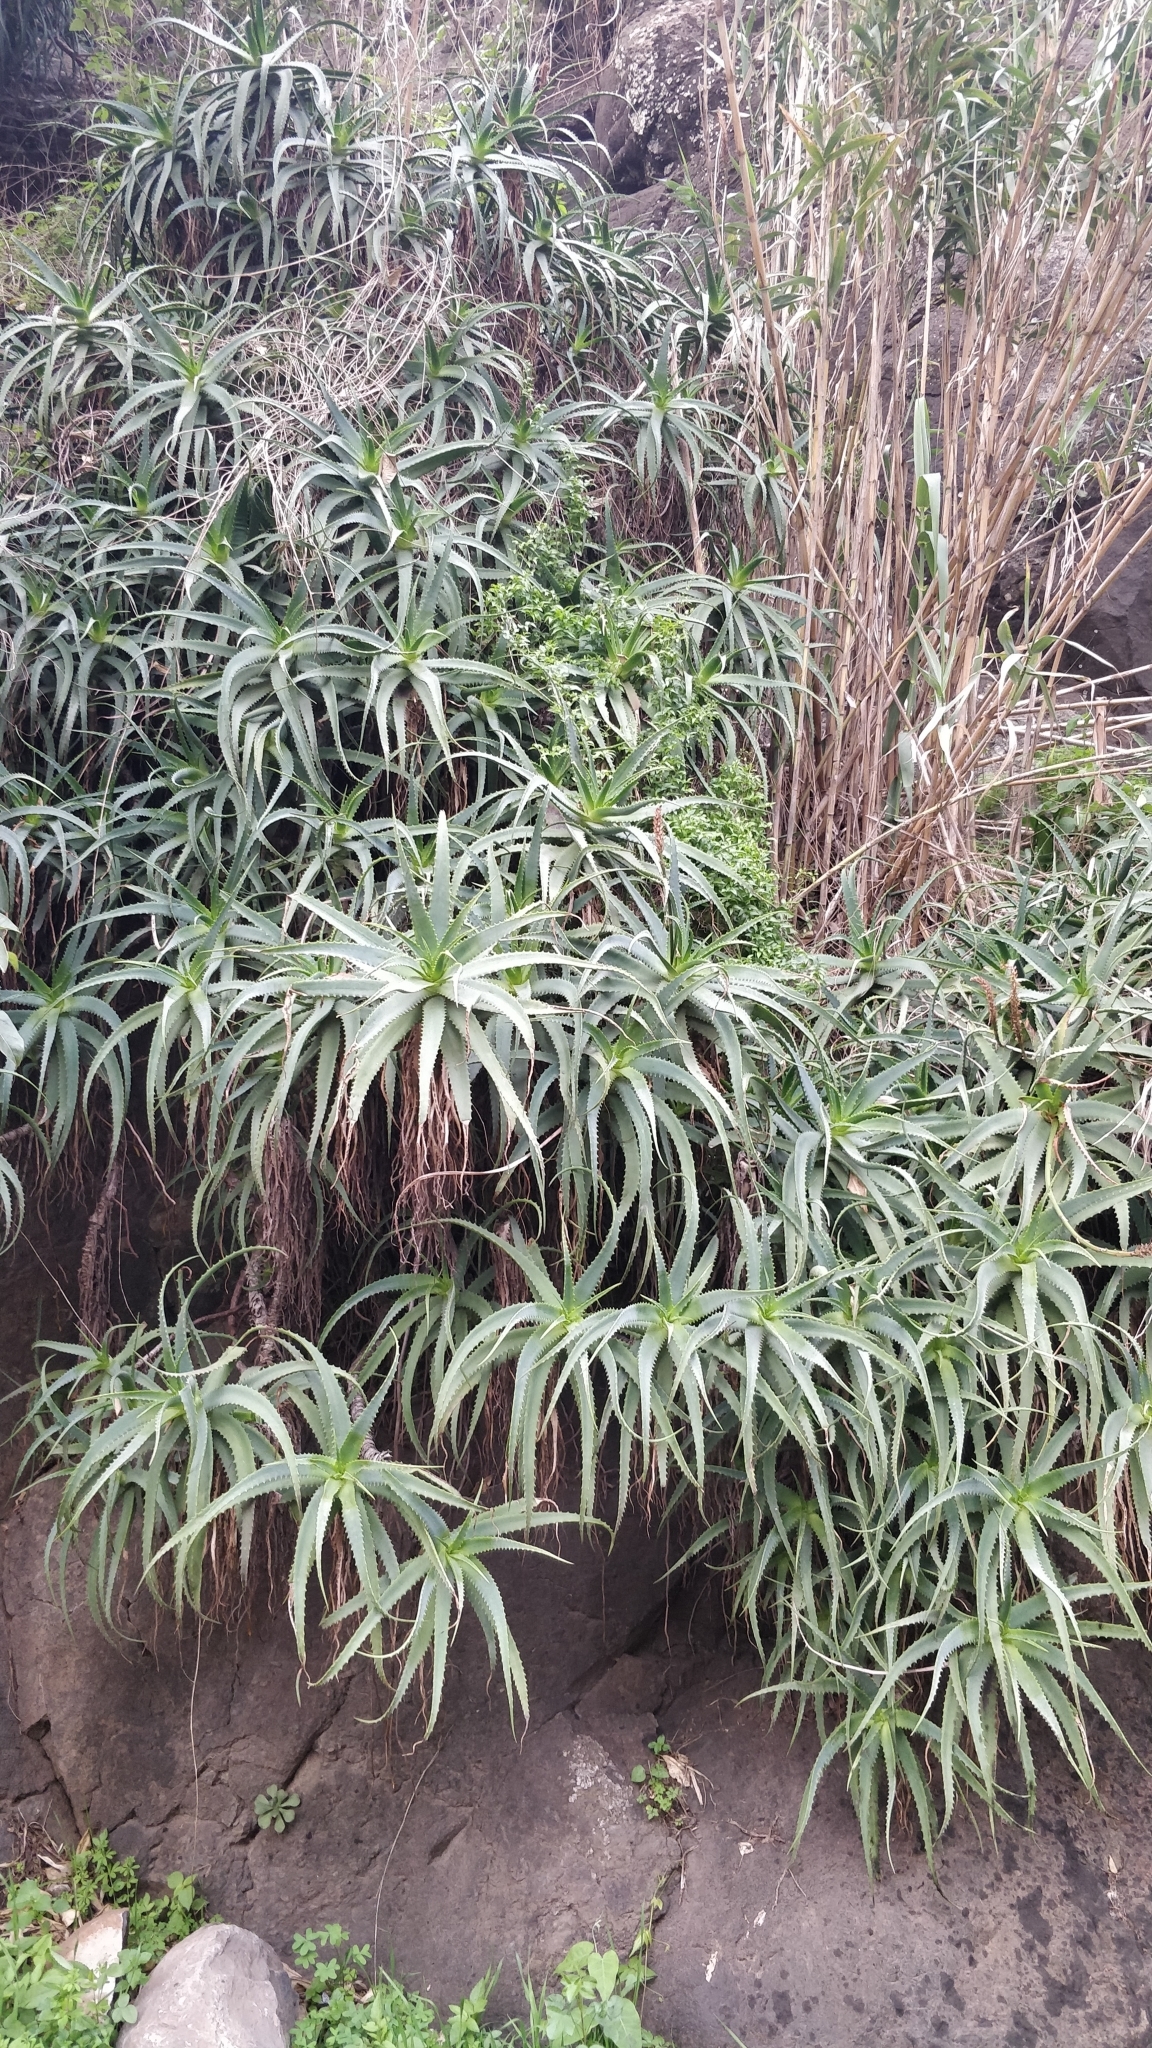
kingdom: Plantae
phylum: Tracheophyta
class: Liliopsida
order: Asparagales
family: Asphodelaceae
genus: Aloe
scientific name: Aloe arborescens
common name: Candelabra aloe
